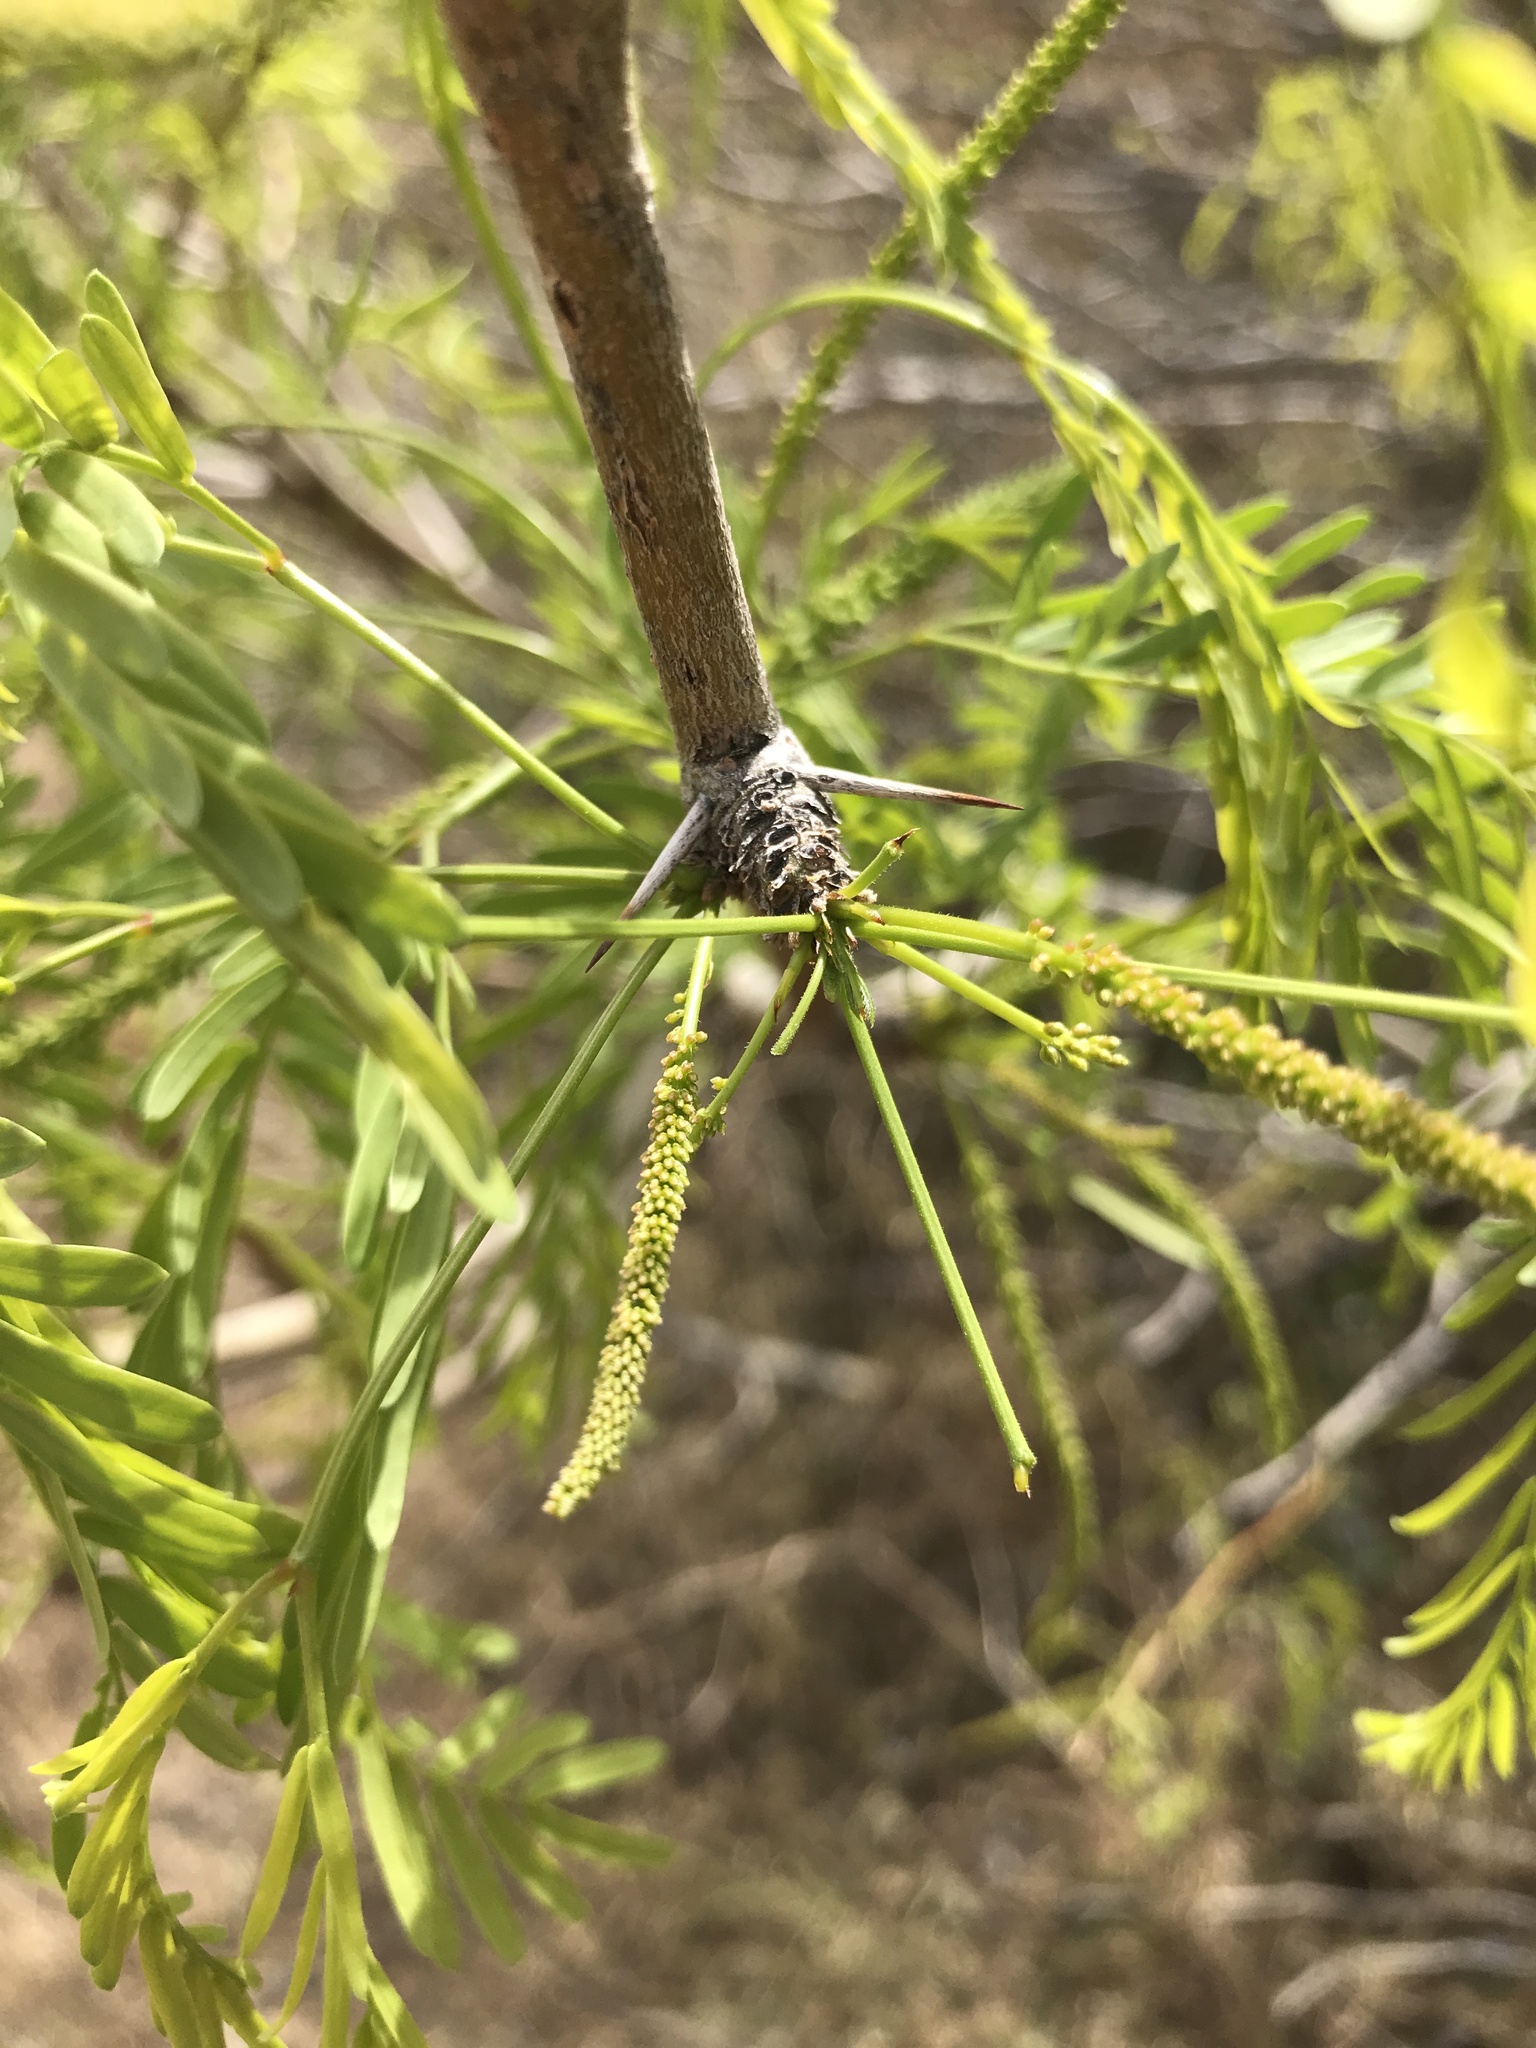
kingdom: Plantae
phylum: Tracheophyta
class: Magnoliopsida
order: Fabales
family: Fabaceae
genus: Prosopis
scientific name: Prosopis pubescens
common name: Screw-bean
